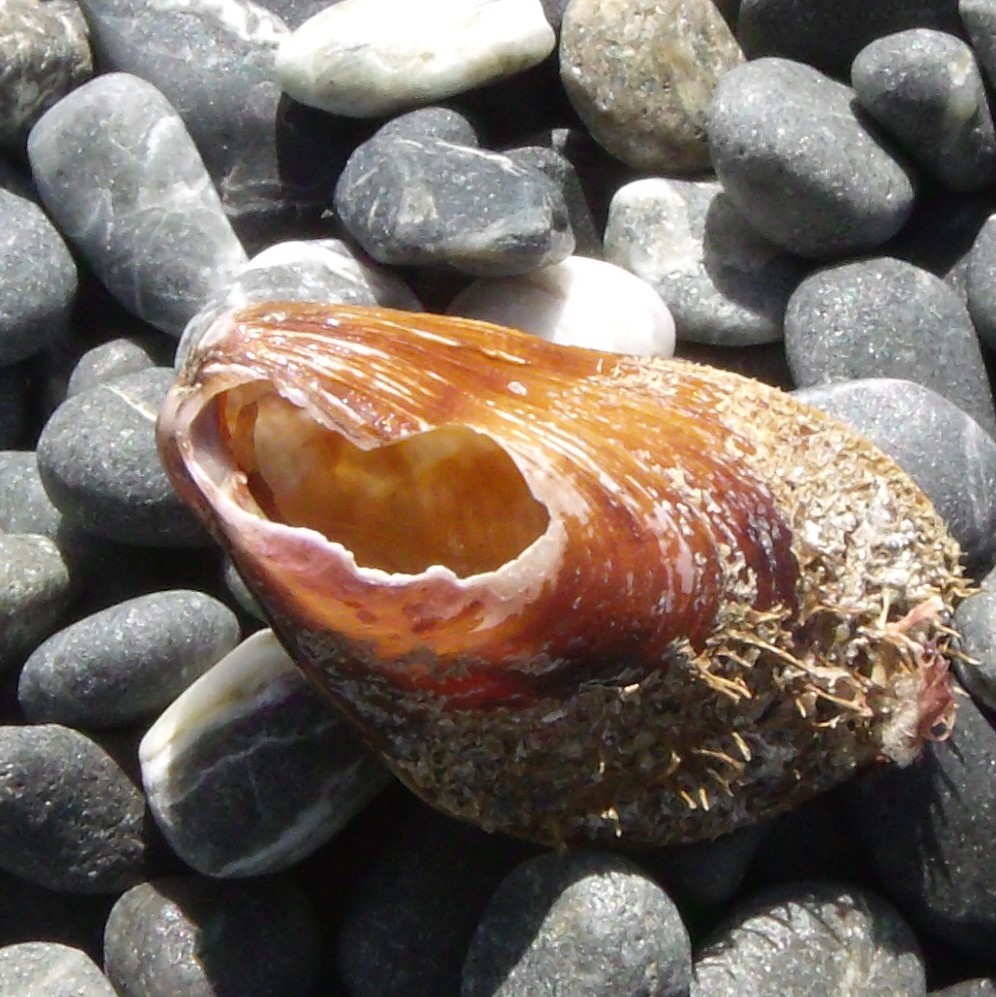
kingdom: Animalia
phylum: Mollusca
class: Bivalvia
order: Mytilida
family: Mytilidae
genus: Modiolus
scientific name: Modiolus areolatus
